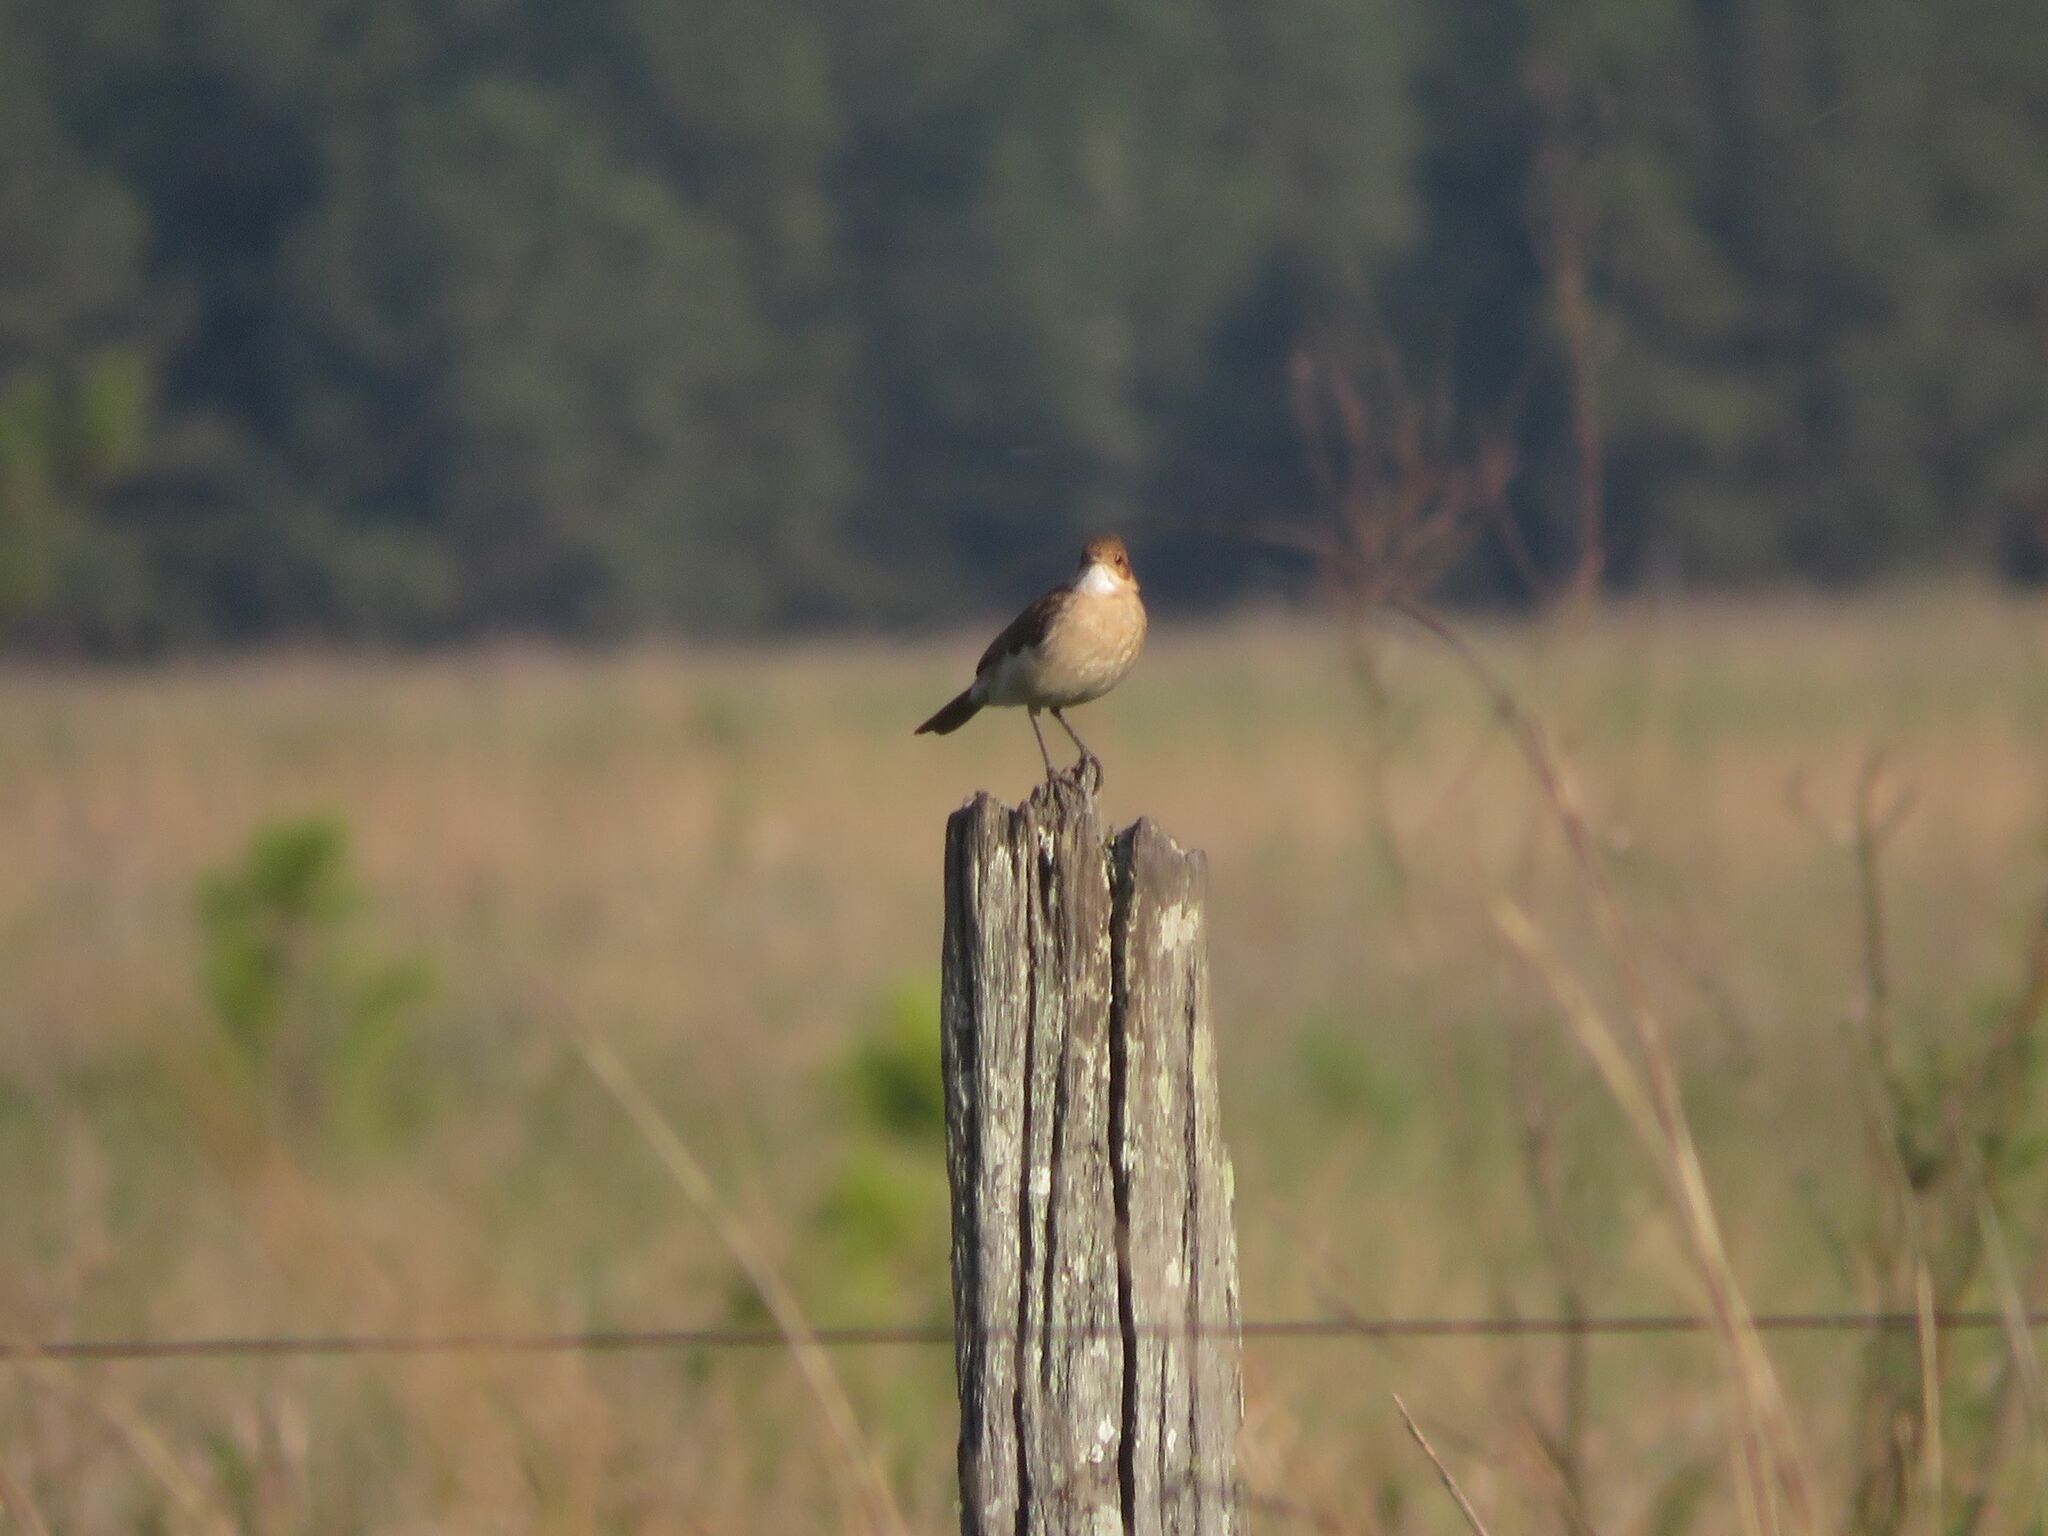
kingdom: Animalia
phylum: Chordata
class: Aves
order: Passeriformes
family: Furnariidae
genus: Furnarius
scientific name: Furnarius rufus
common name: Rufous hornero
